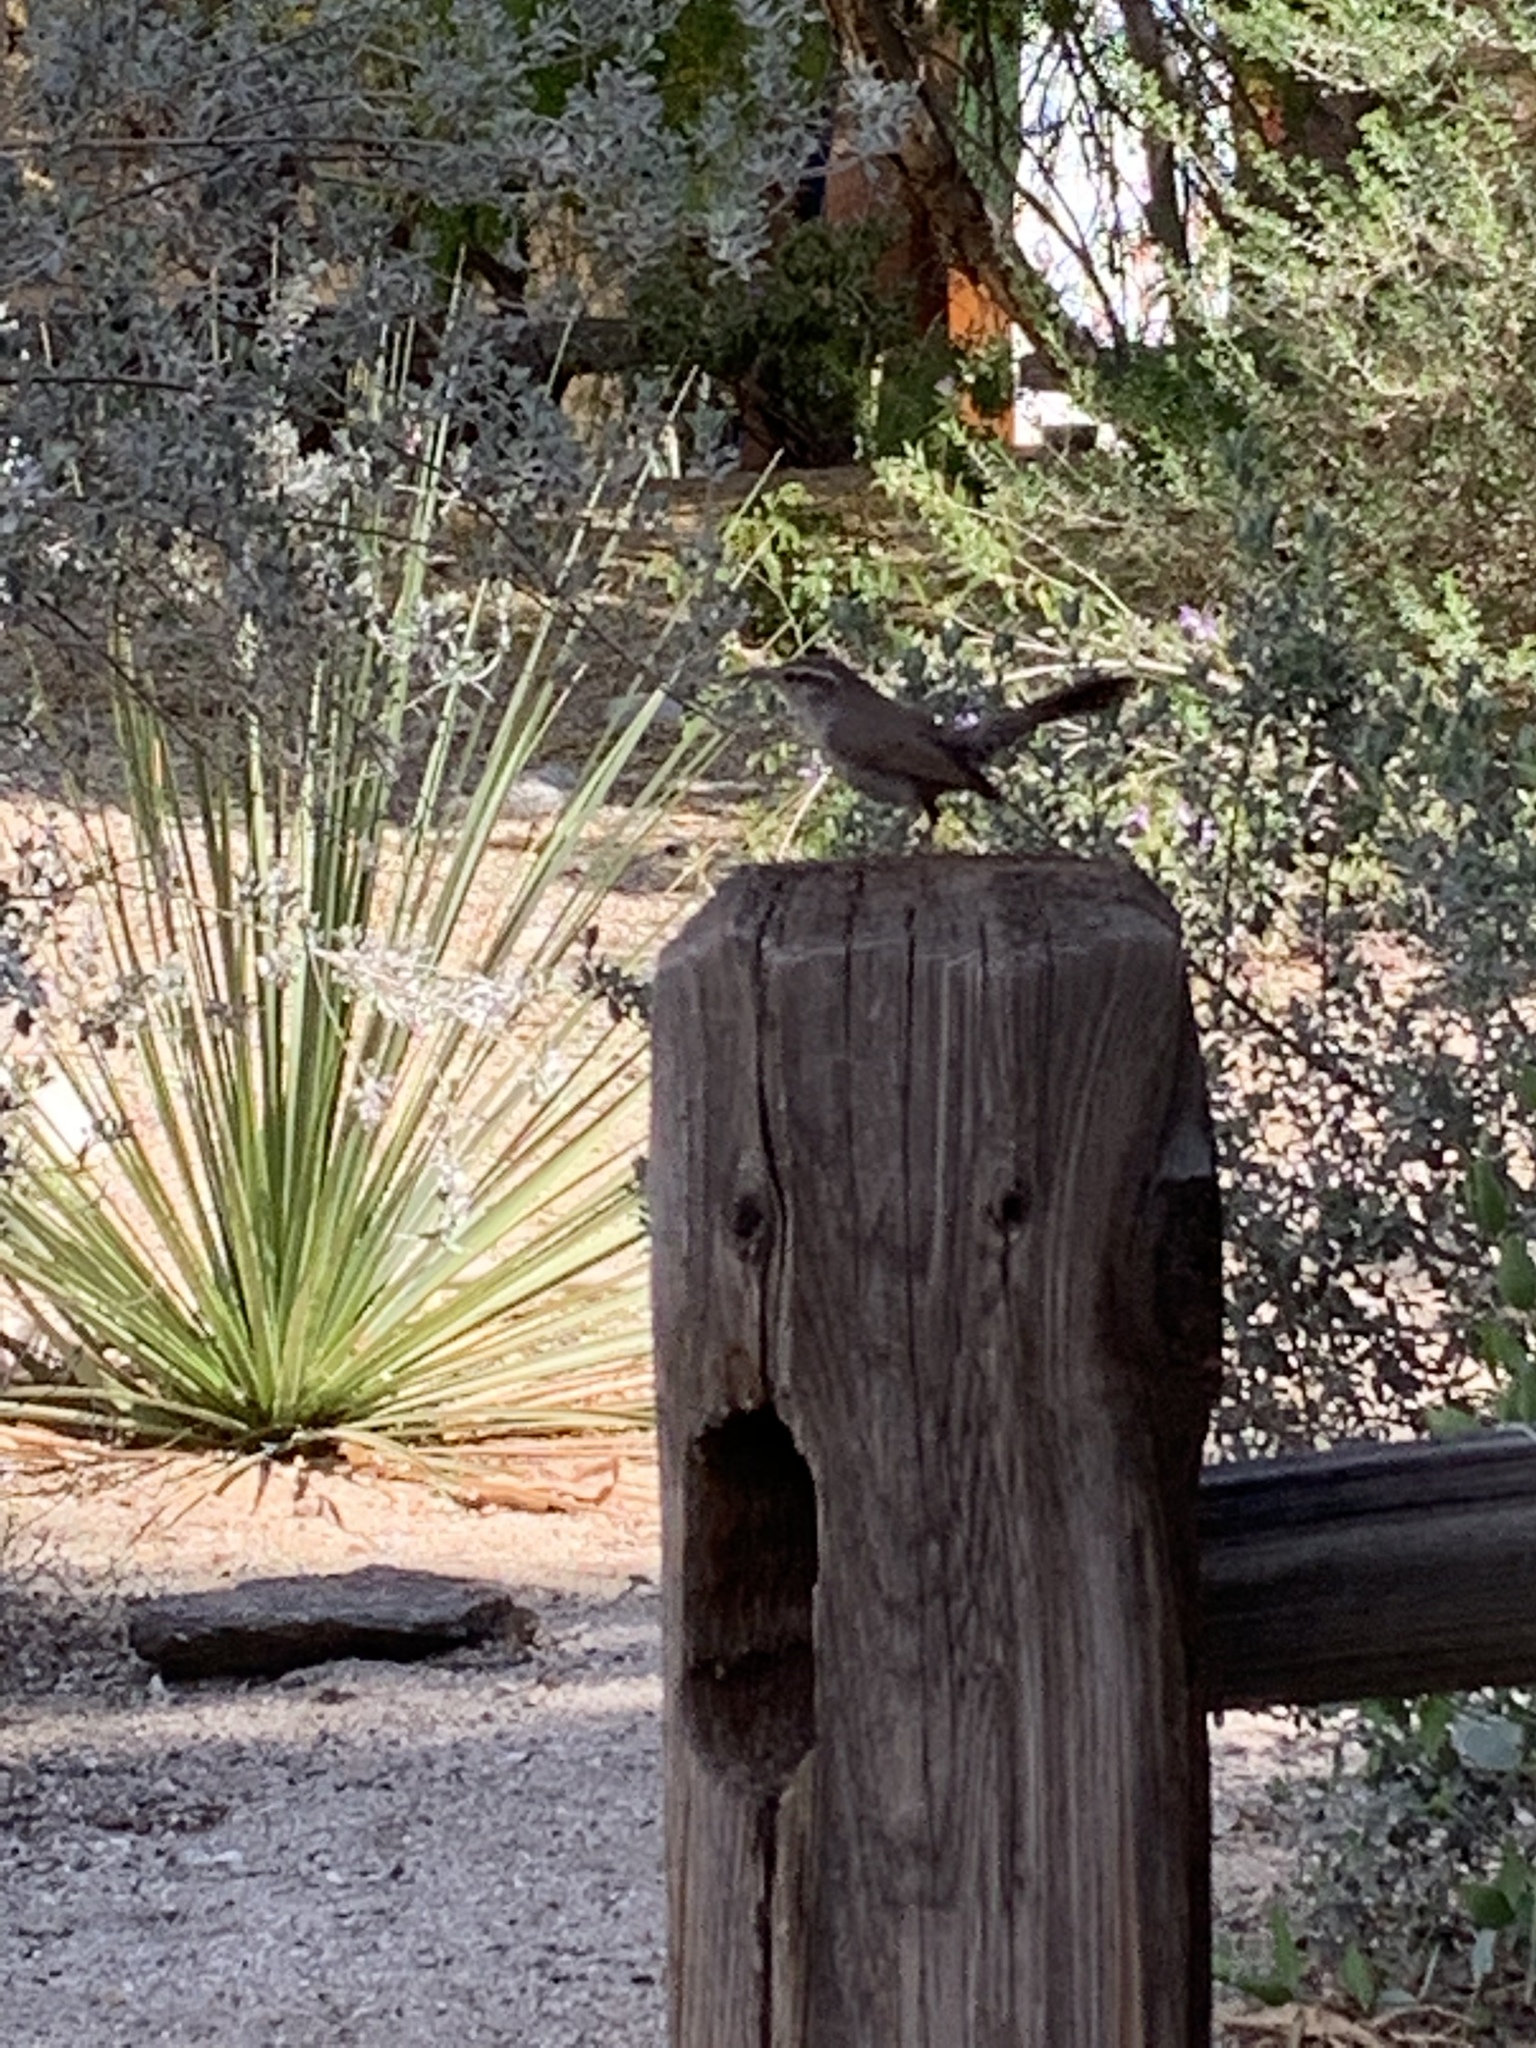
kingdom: Animalia
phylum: Chordata
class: Aves
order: Passeriformes
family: Troglodytidae
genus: Thryomanes
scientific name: Thryomanes bewickii
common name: Bewick's wren
